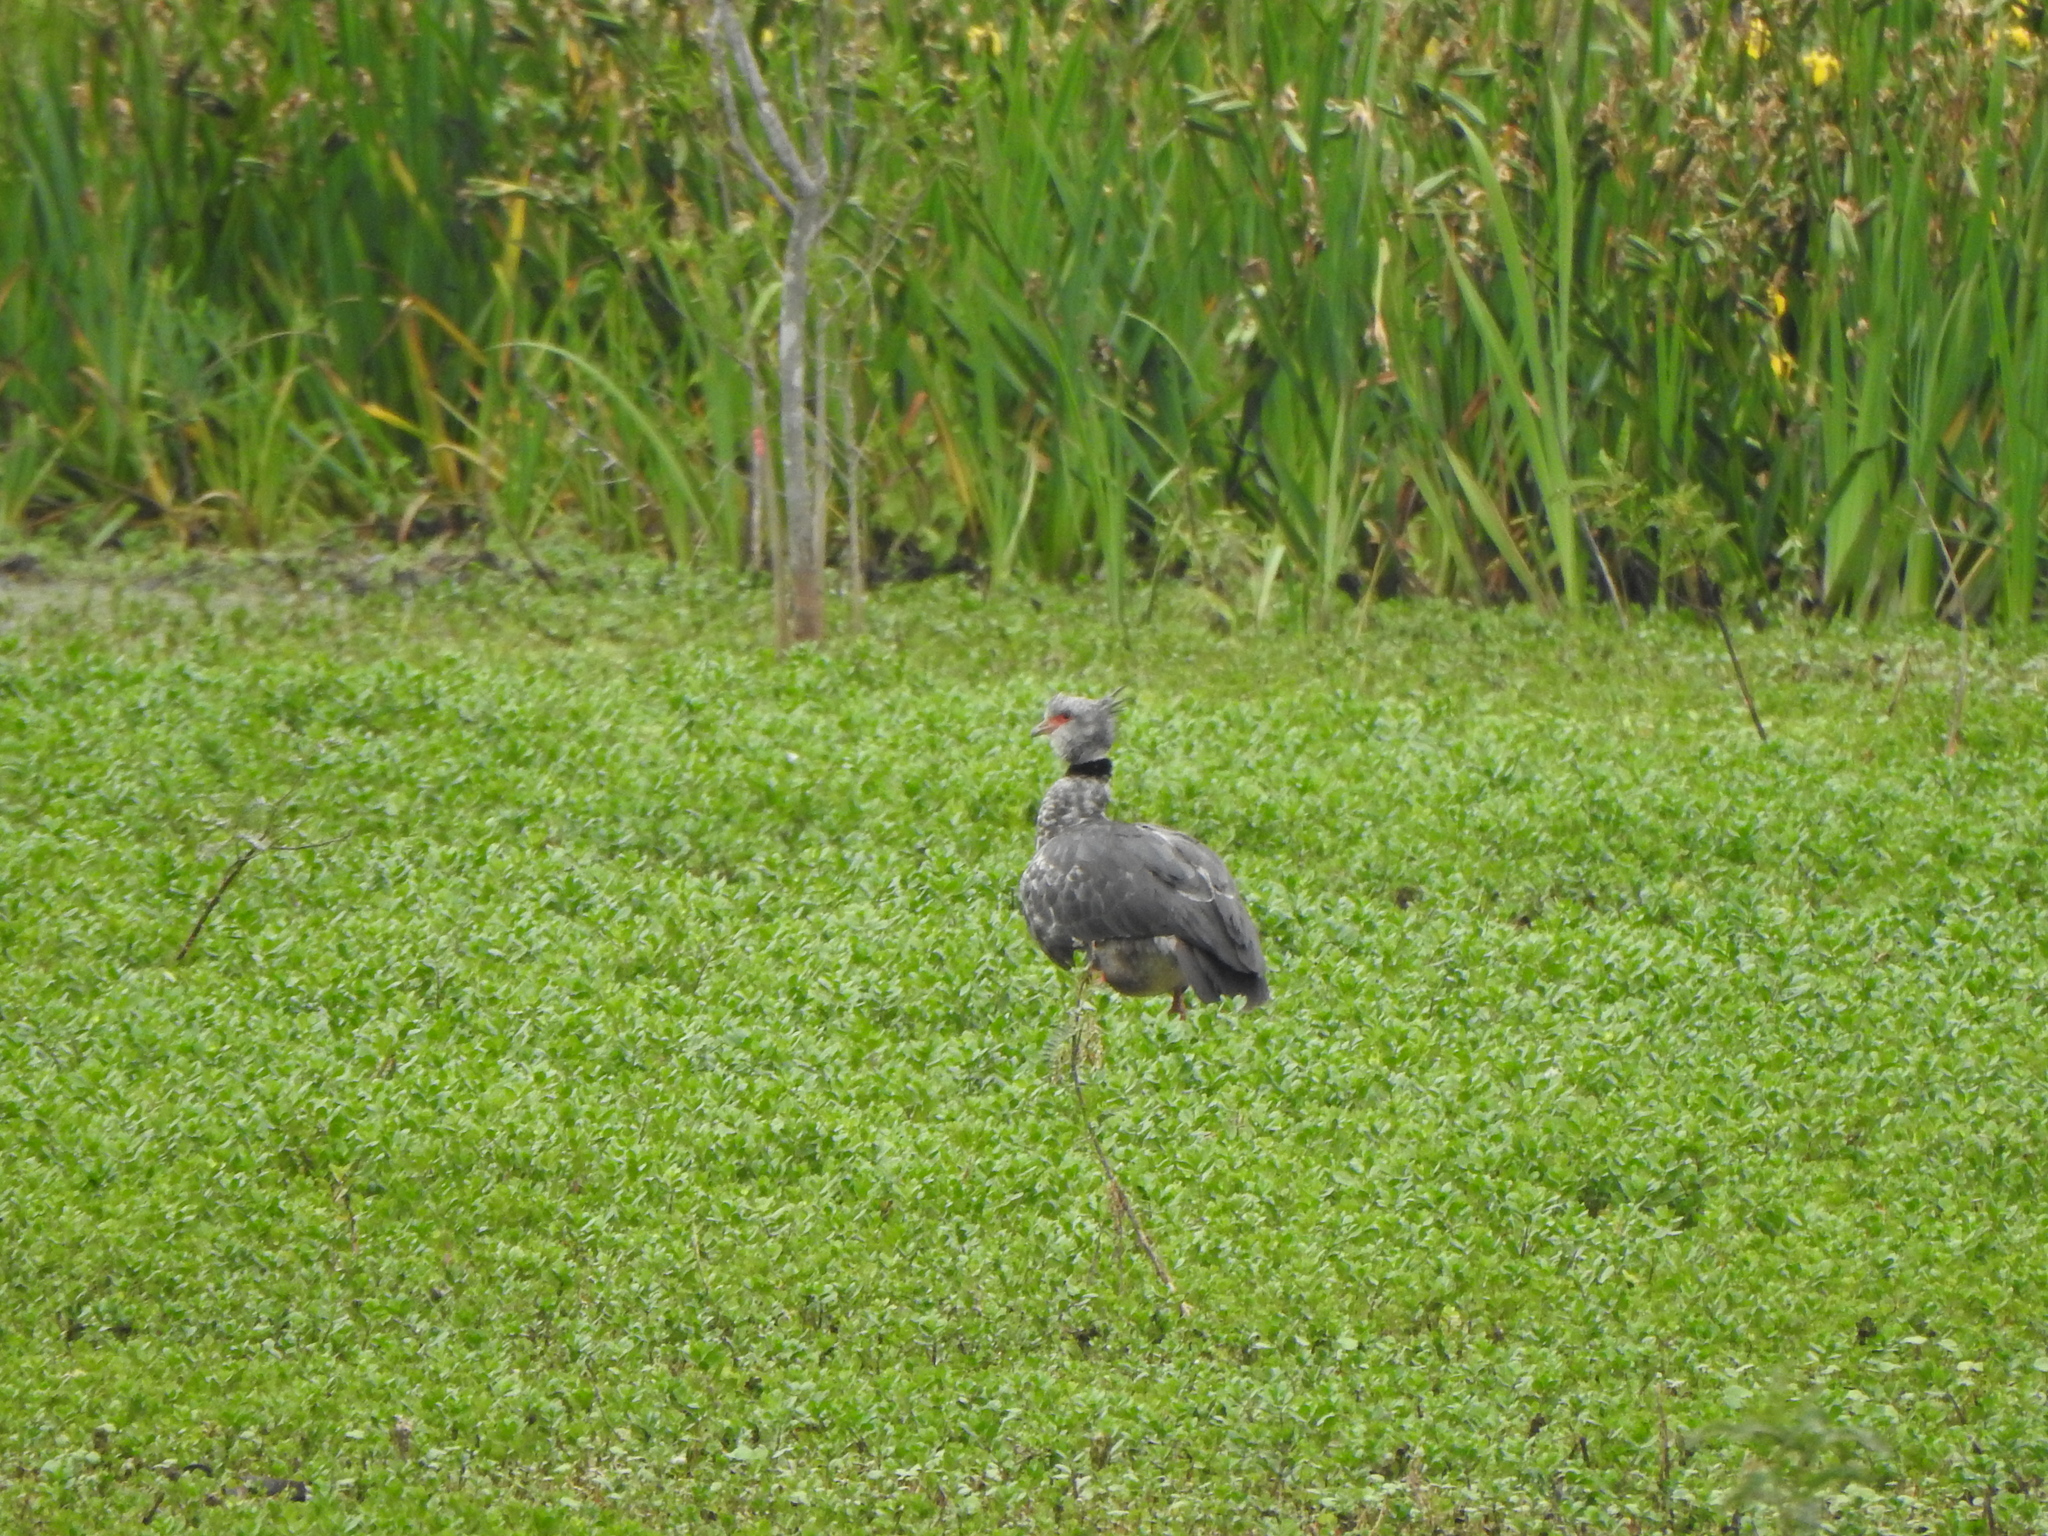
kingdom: Animalia
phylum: Chordata
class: Aves
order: Anseriformes
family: Anhimidae
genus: Chauna
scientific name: Chauna torquata
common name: Southern screamer
